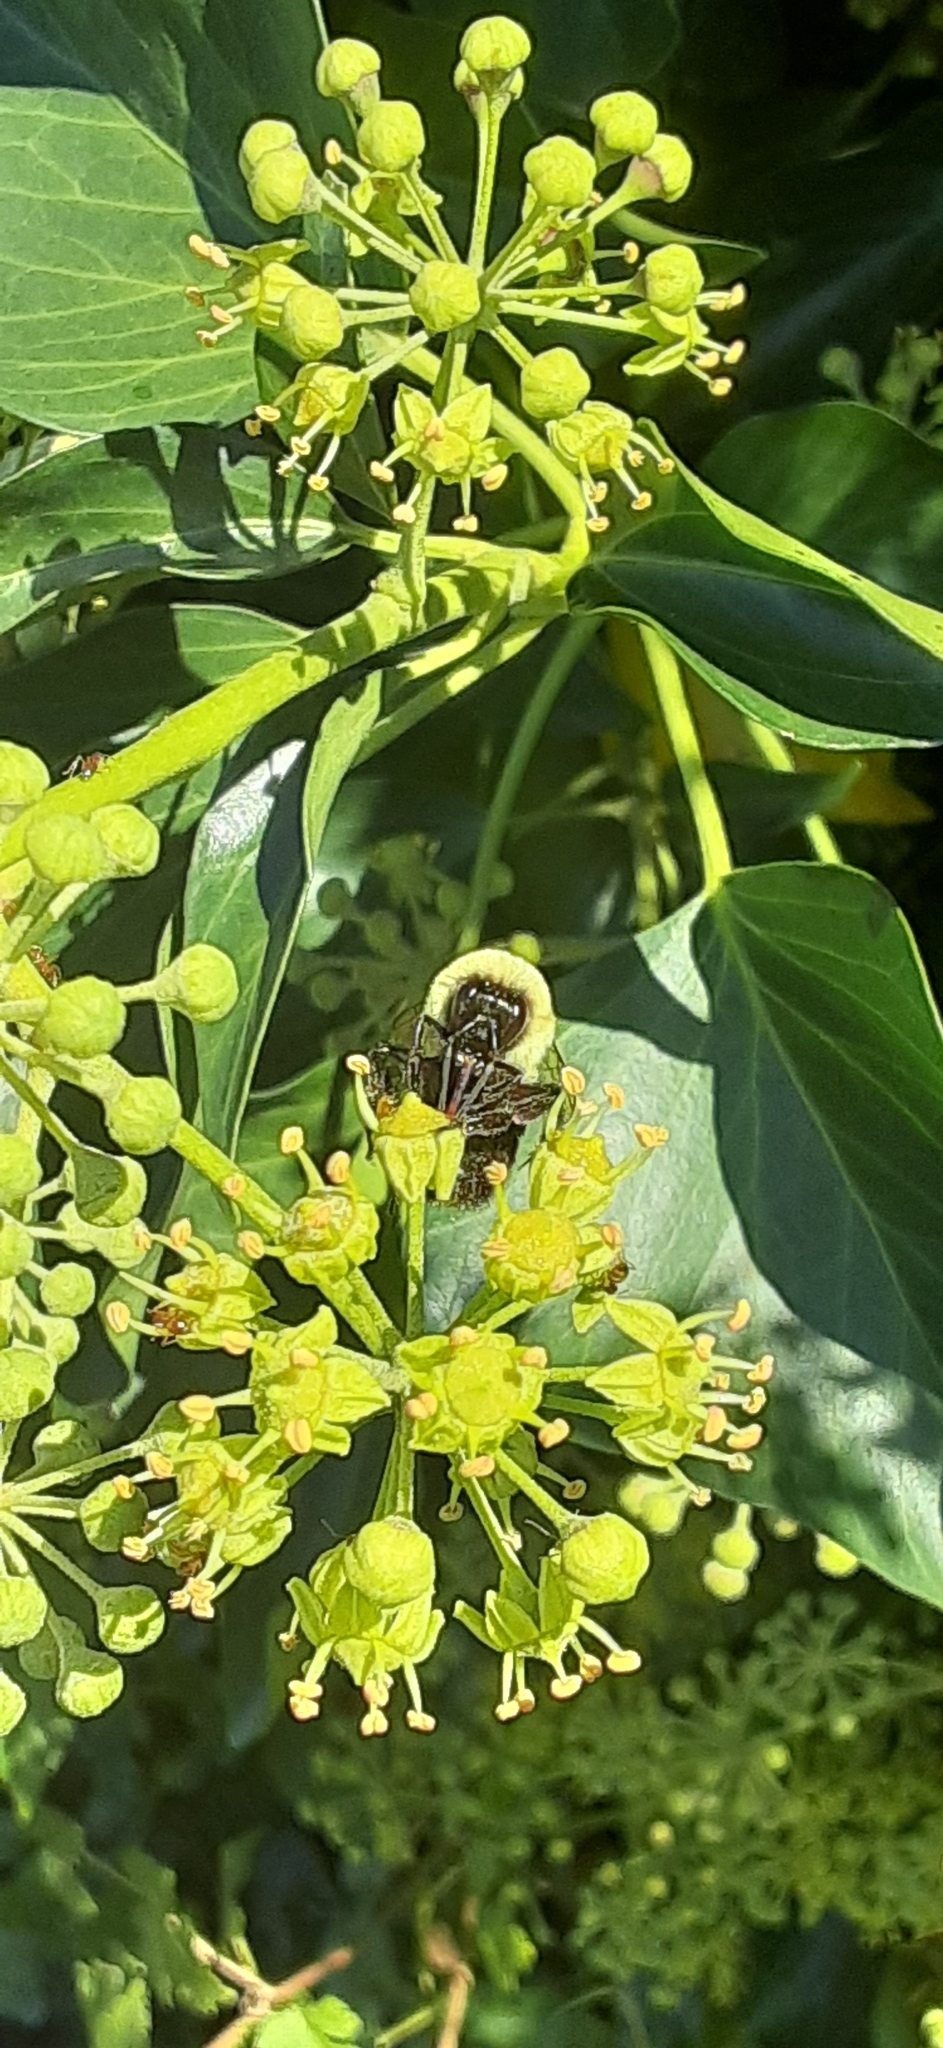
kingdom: Animalia
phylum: Arthropoda
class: Insecta
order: Hymenoptera
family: Apidae
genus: Bombus
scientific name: Bombus impatiens
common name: Common eastern bumble bee
